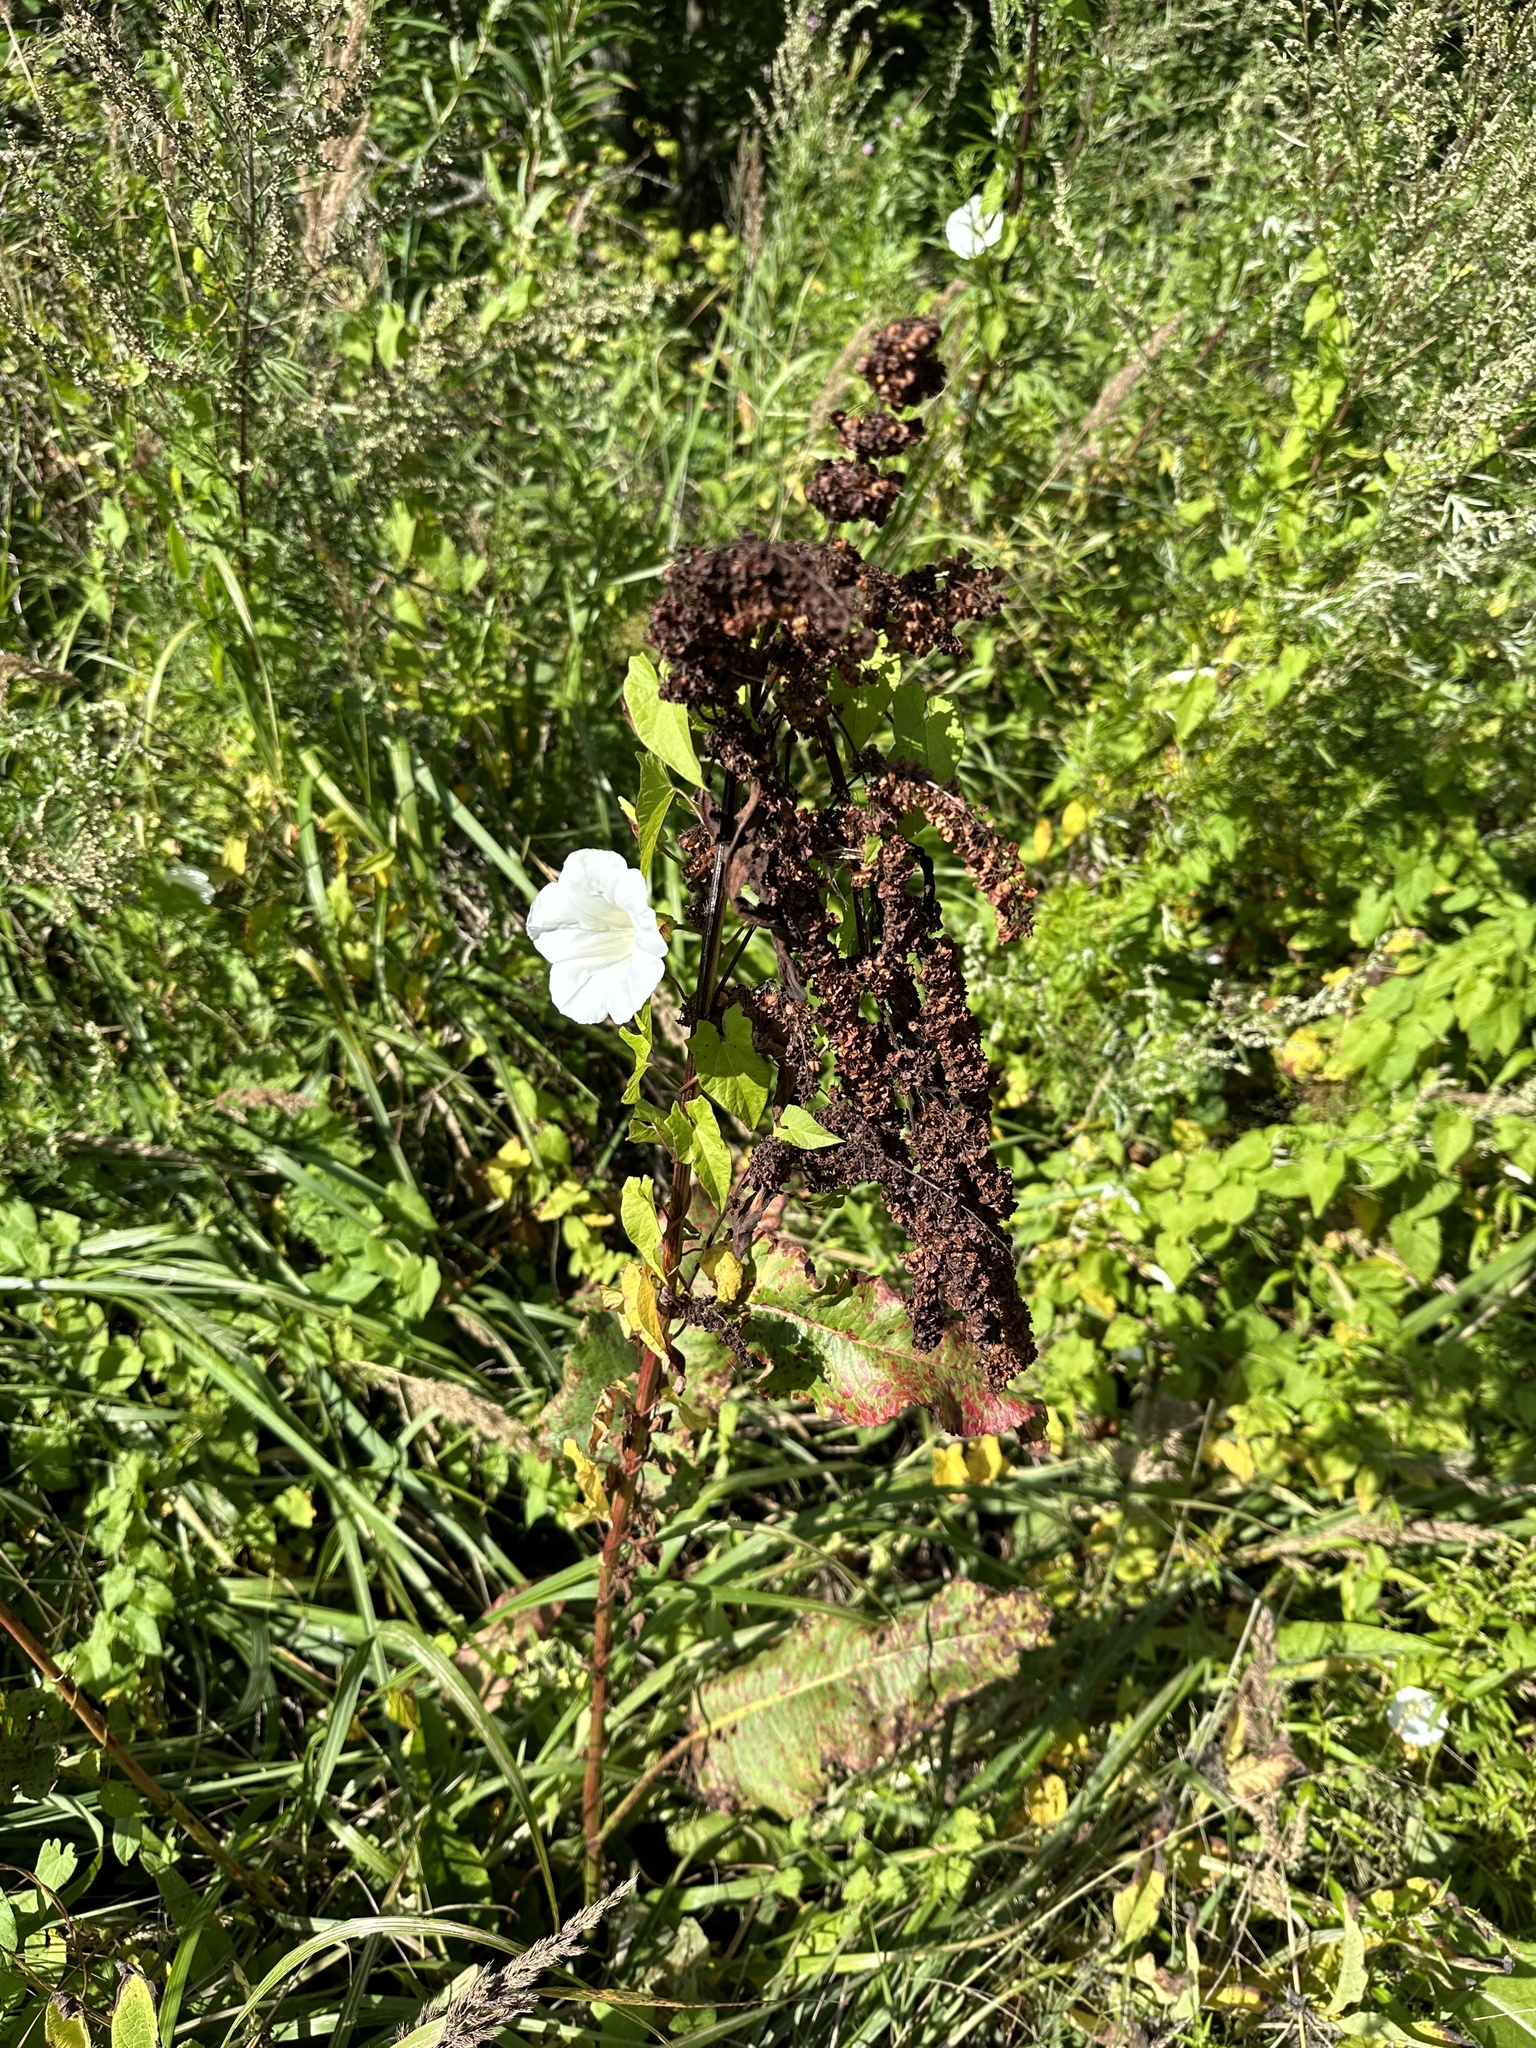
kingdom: Plantae
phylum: Tracheophyta
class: Magnoliopsida
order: Solanales
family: Convolvulaceae
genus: Calystegia
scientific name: Calystegia sepium
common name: Hedge bindweed
